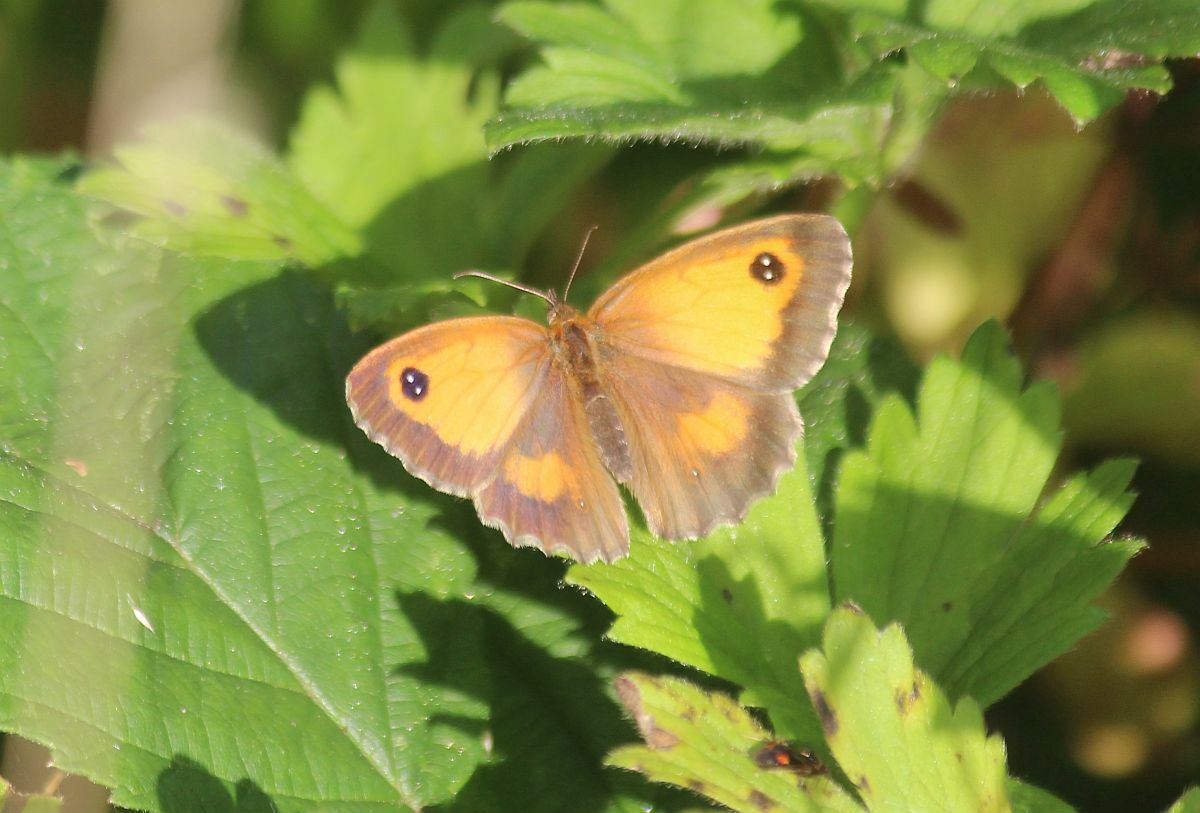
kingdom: Animalia
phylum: Arthropoda
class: Insecta
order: Lepidoptera
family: Nymphalidae
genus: Pyronia
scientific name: Pyronia tithonus
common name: Gatekeeper
